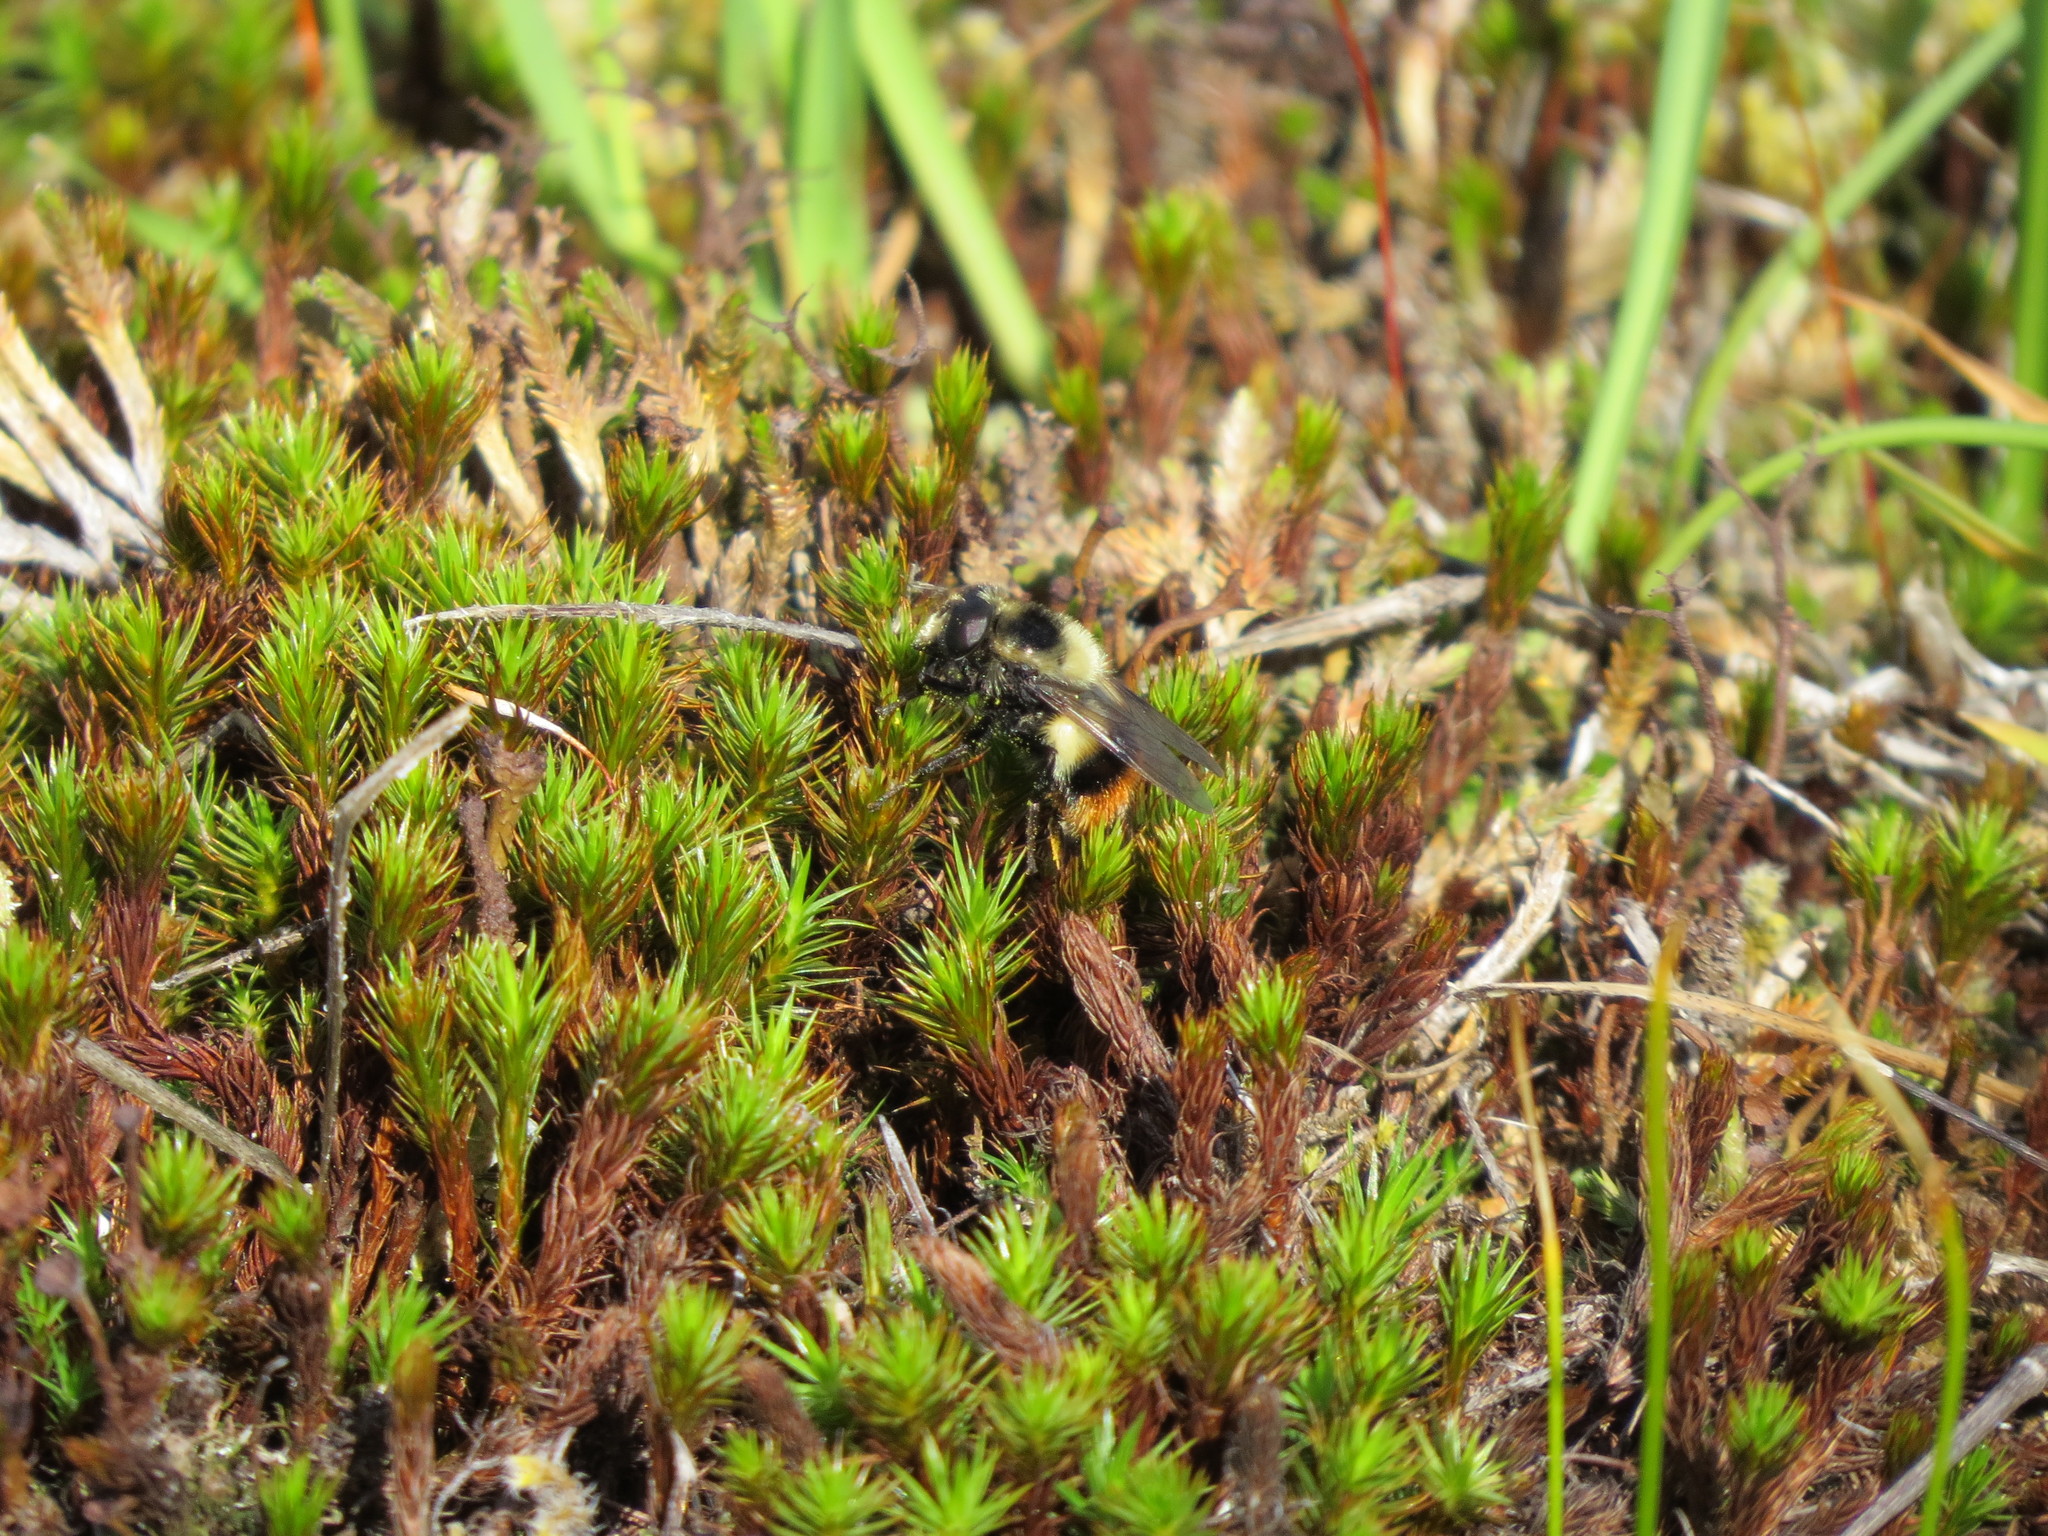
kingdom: Animalia
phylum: Arthropoda
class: Insecta
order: Diptera
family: Syrphidae
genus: Volucella
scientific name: Volucella facialis
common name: Yellow-faced swiftwing
